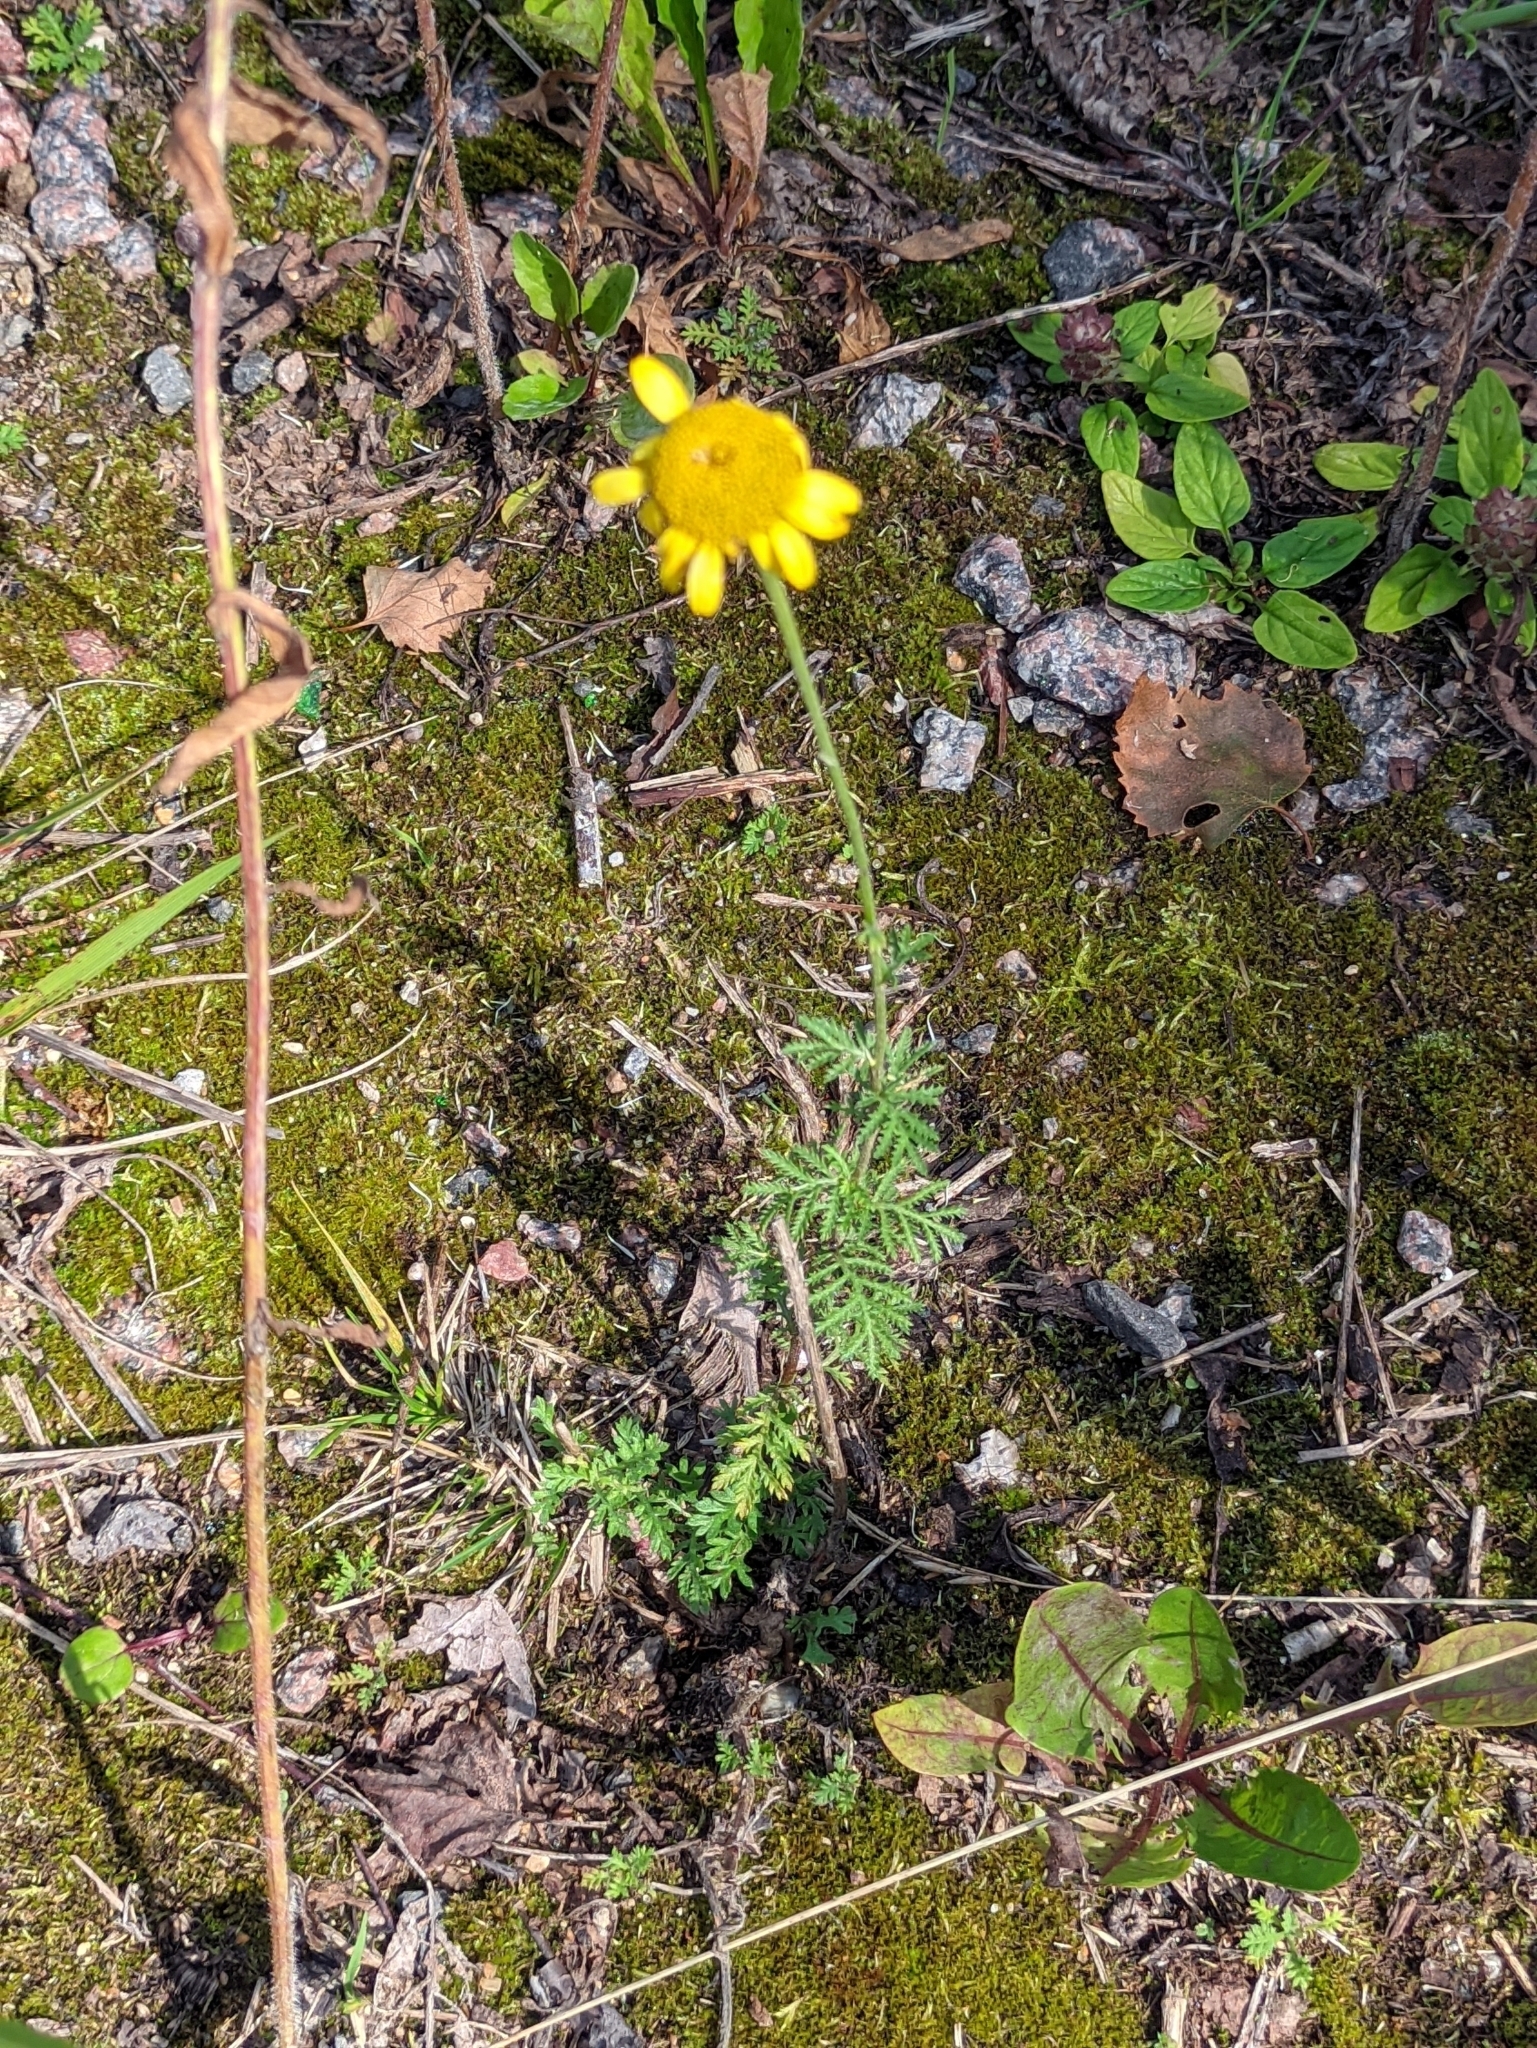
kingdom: Plantae
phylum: Tracheophyta
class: Magnoliopsida
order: Asterales
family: Asteraceae
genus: Cota
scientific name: Cota tinctoria
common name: Golden chamomile
